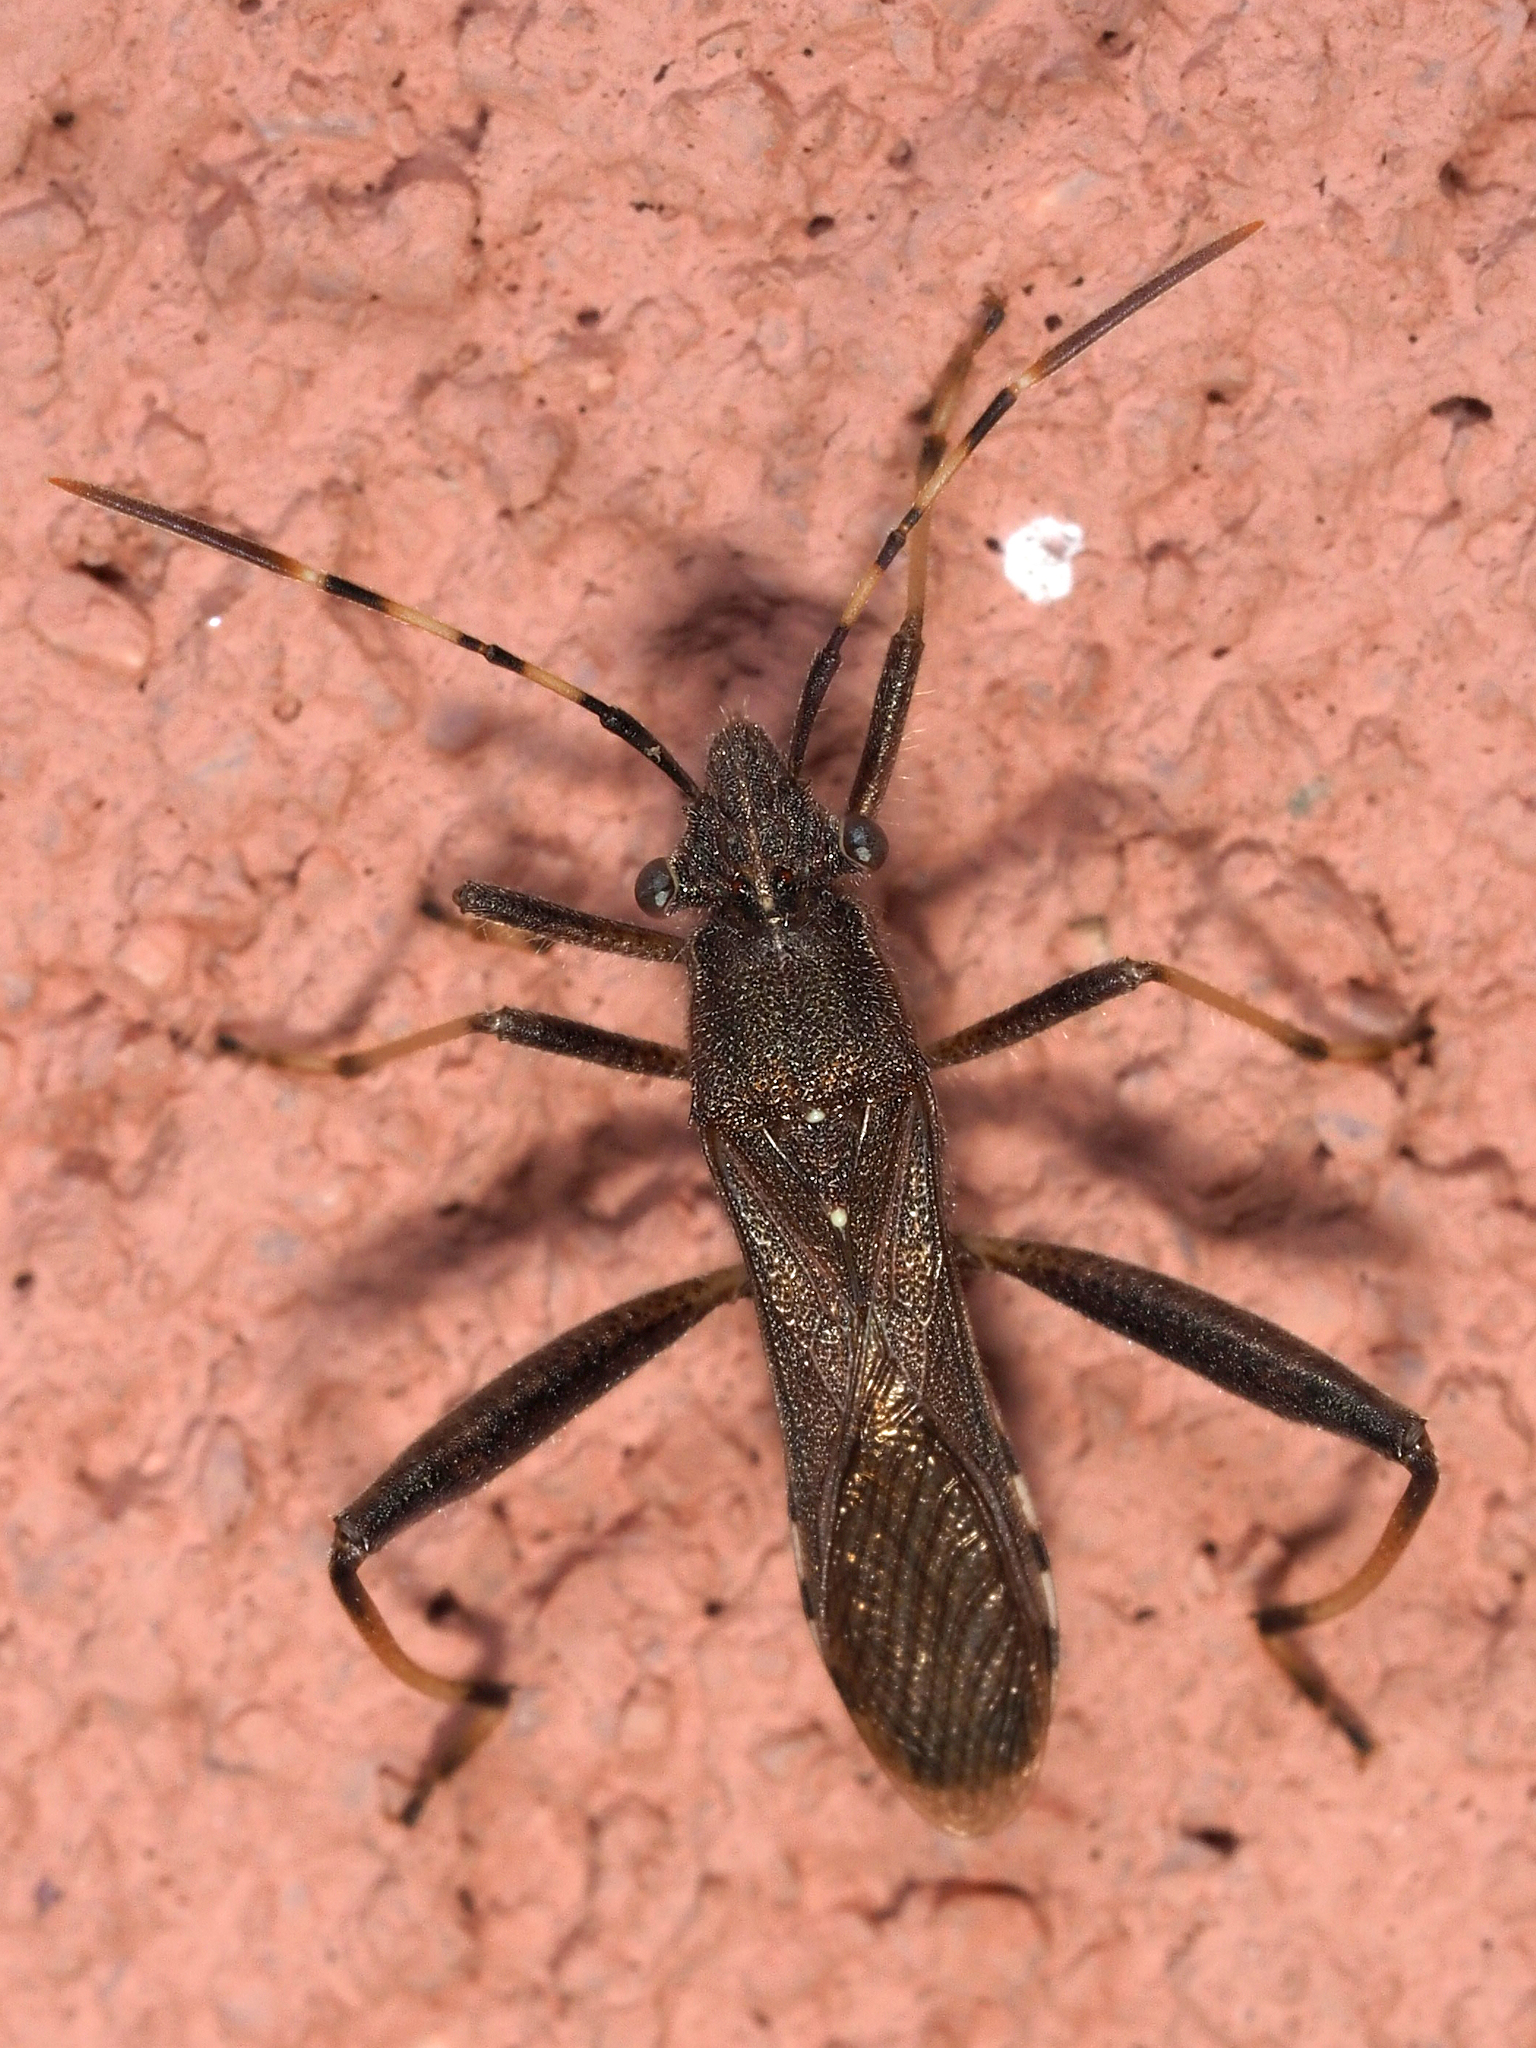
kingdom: Animalia
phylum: Arthropoda
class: Insecta
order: Hemiptera
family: Alydidae
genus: Camptopus
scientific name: Camptopus lateralis
